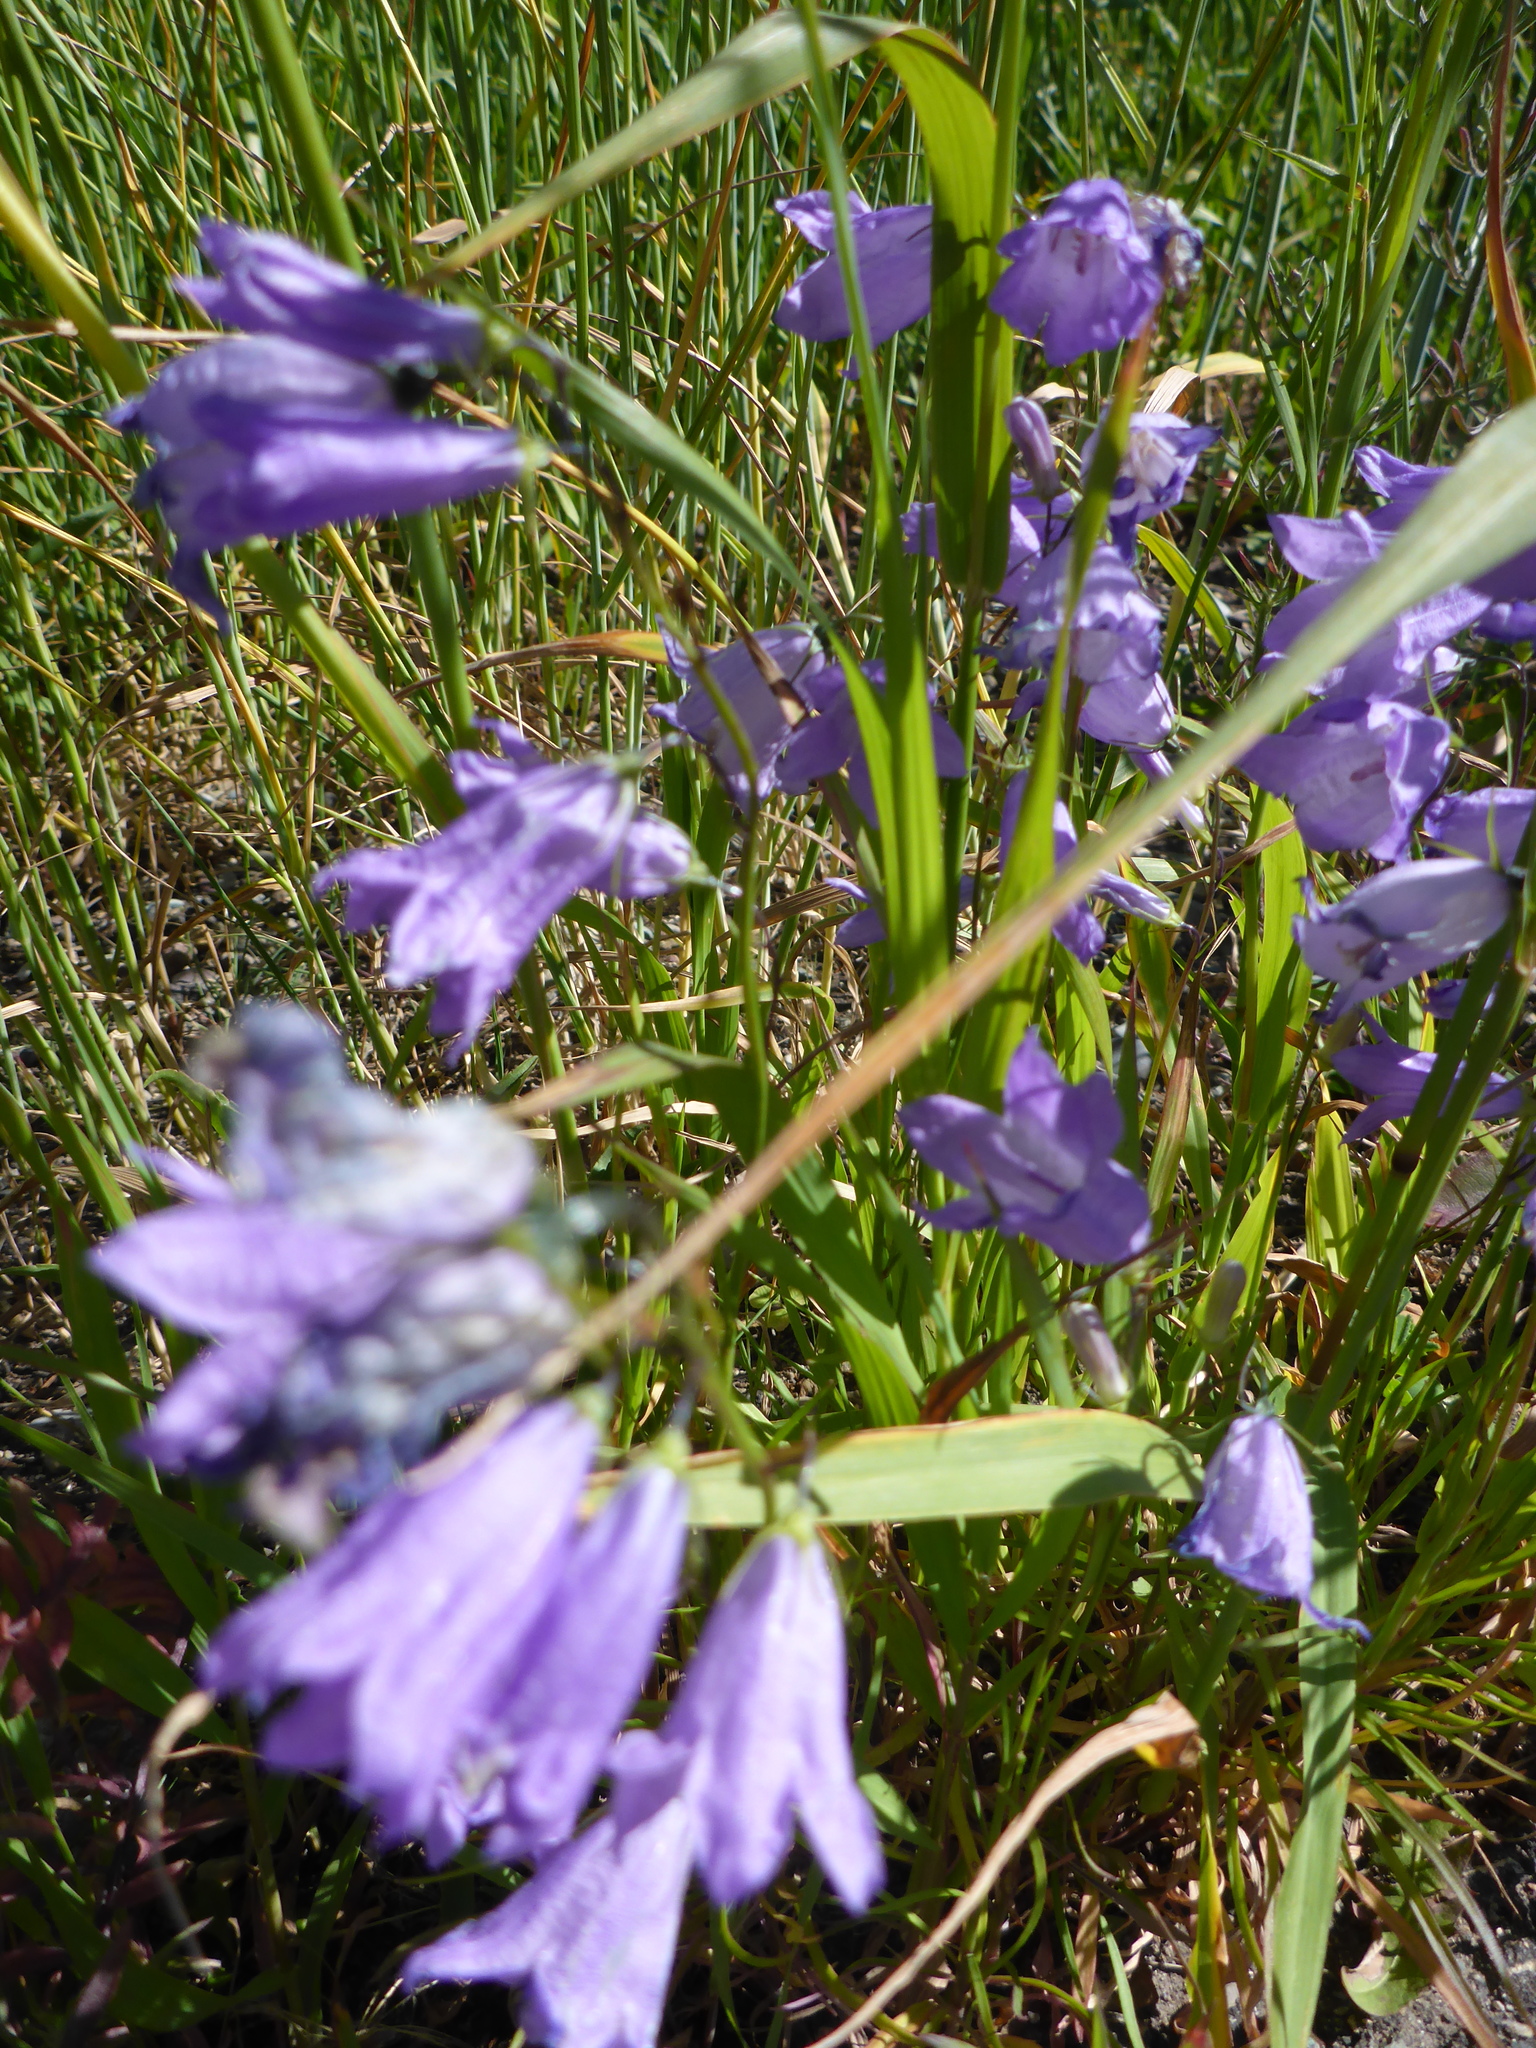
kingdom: Plantae
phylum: Tracheophyta
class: Magnoliopsida
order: Asterales
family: Campanulaceae
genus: Campanula
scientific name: Campanula alaskana
